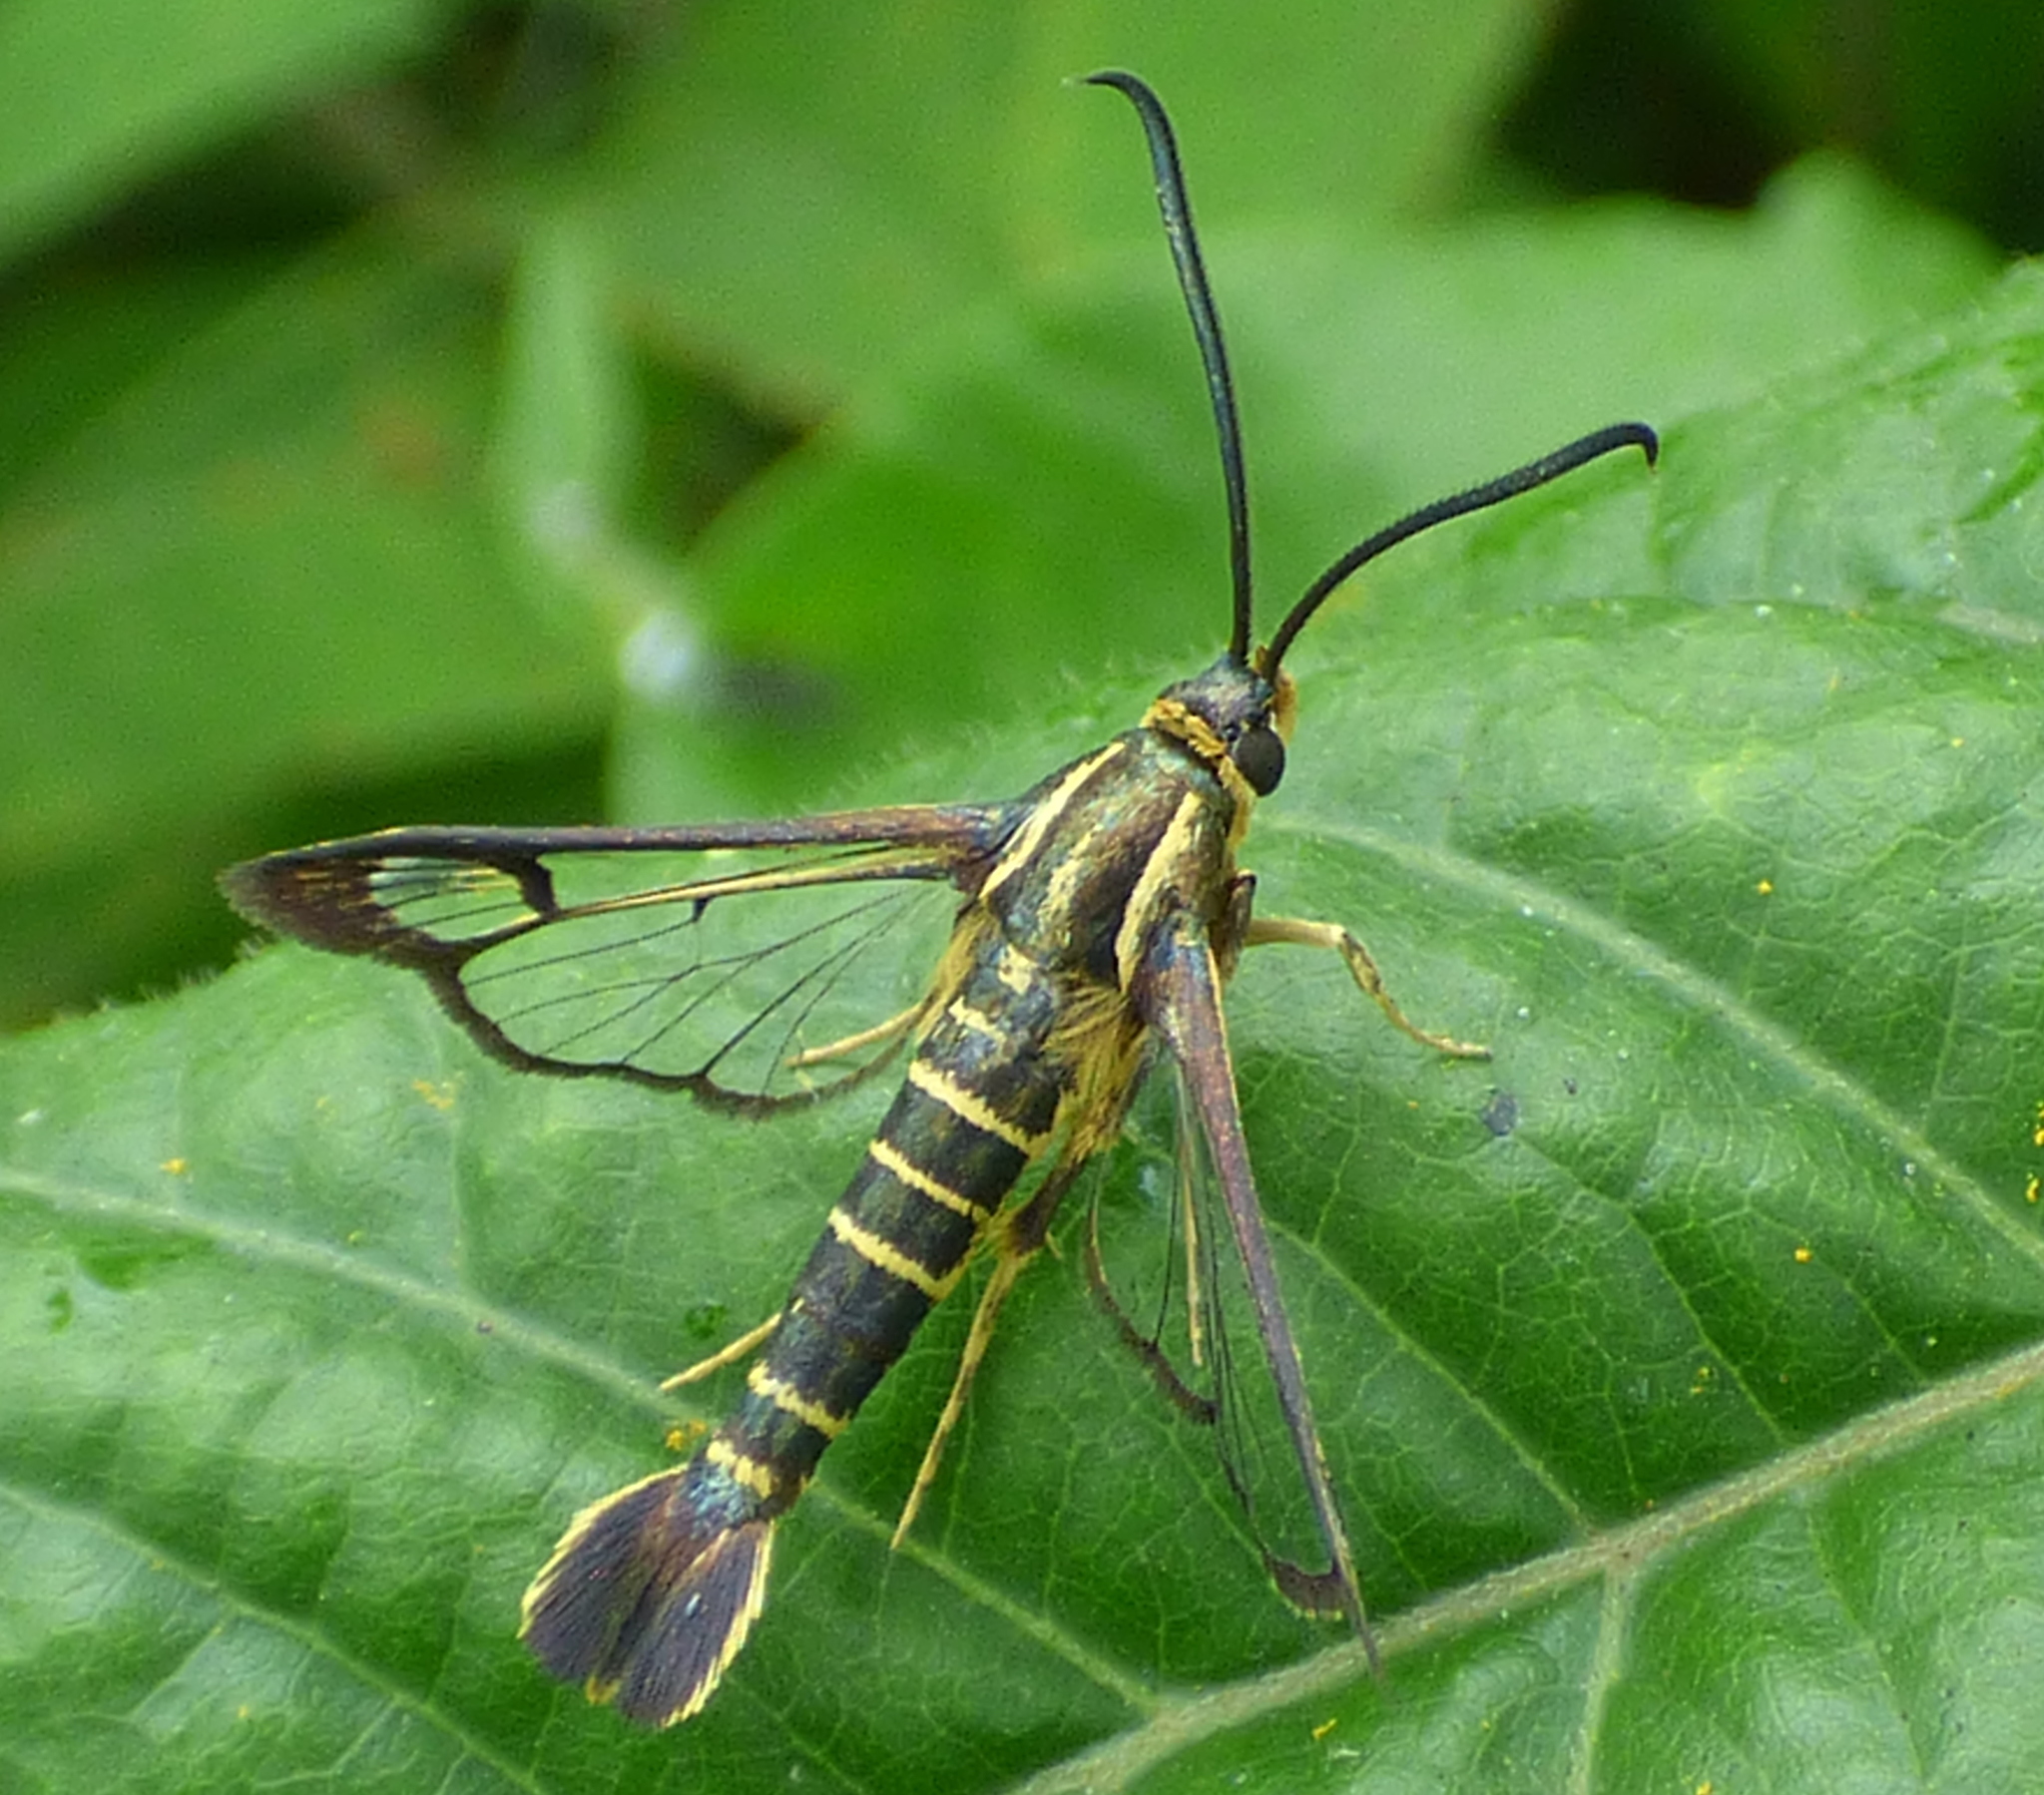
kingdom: Animalia
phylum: Arthropoda
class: Insecta
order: Lepidoptera
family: Sesiidae
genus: Carmenta
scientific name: Carmenta bassiformis
